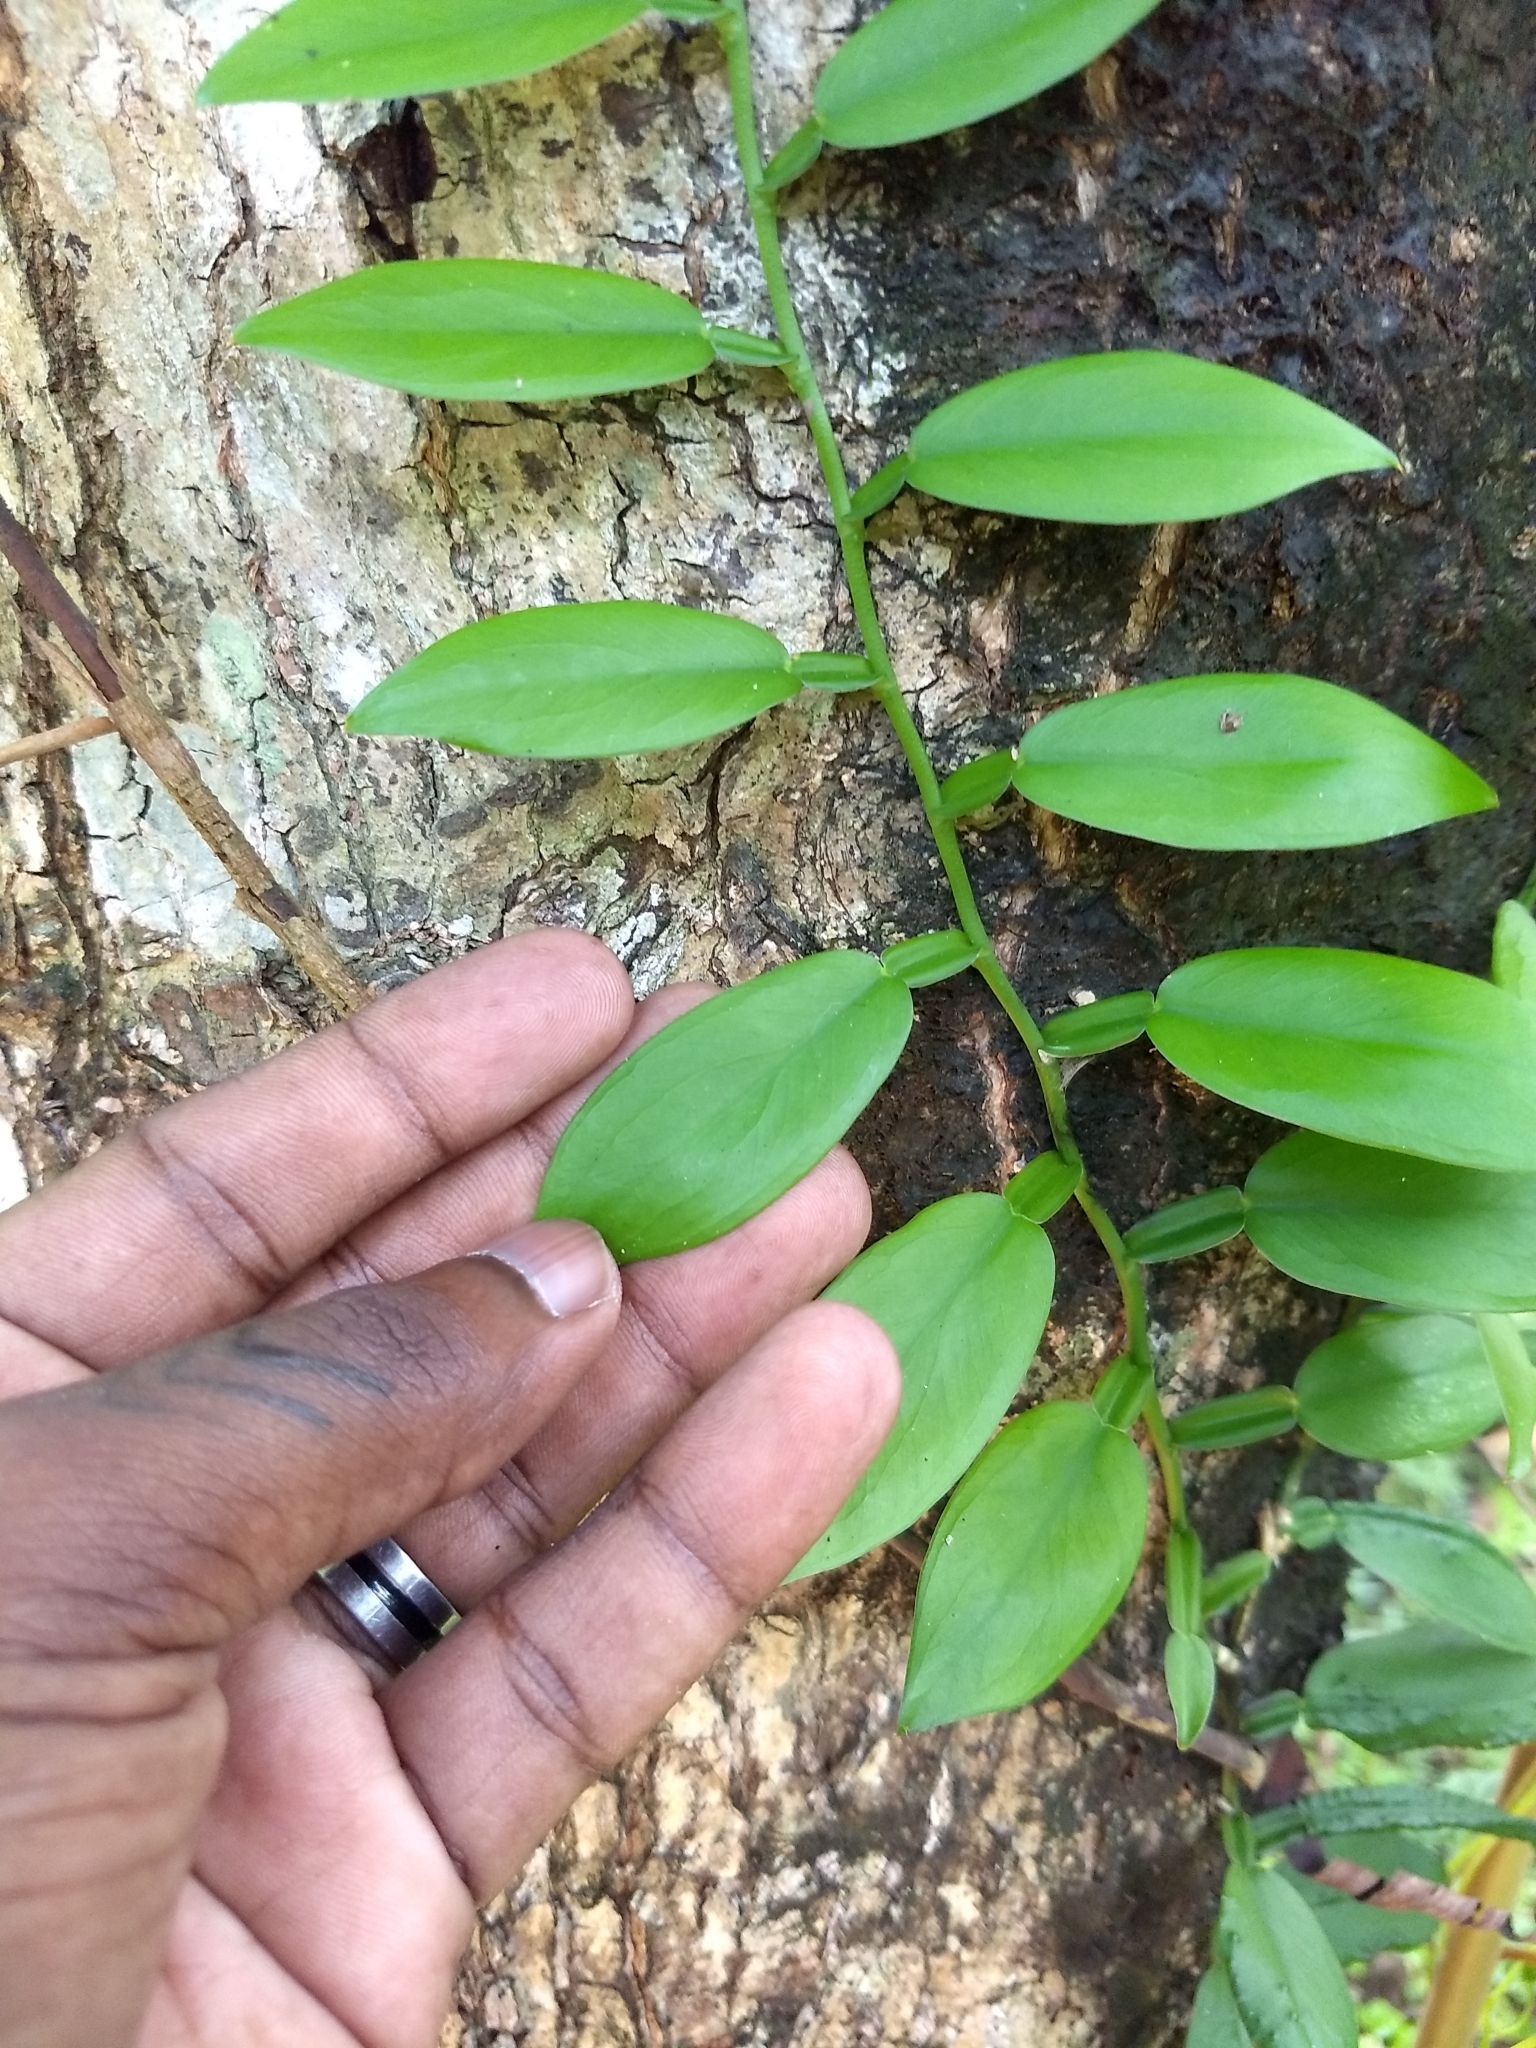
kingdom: Plantae
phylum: Tracheophyta
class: Liliopsida
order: Alismatales
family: Araceae
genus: Pothos
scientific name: Pothos chinensis
